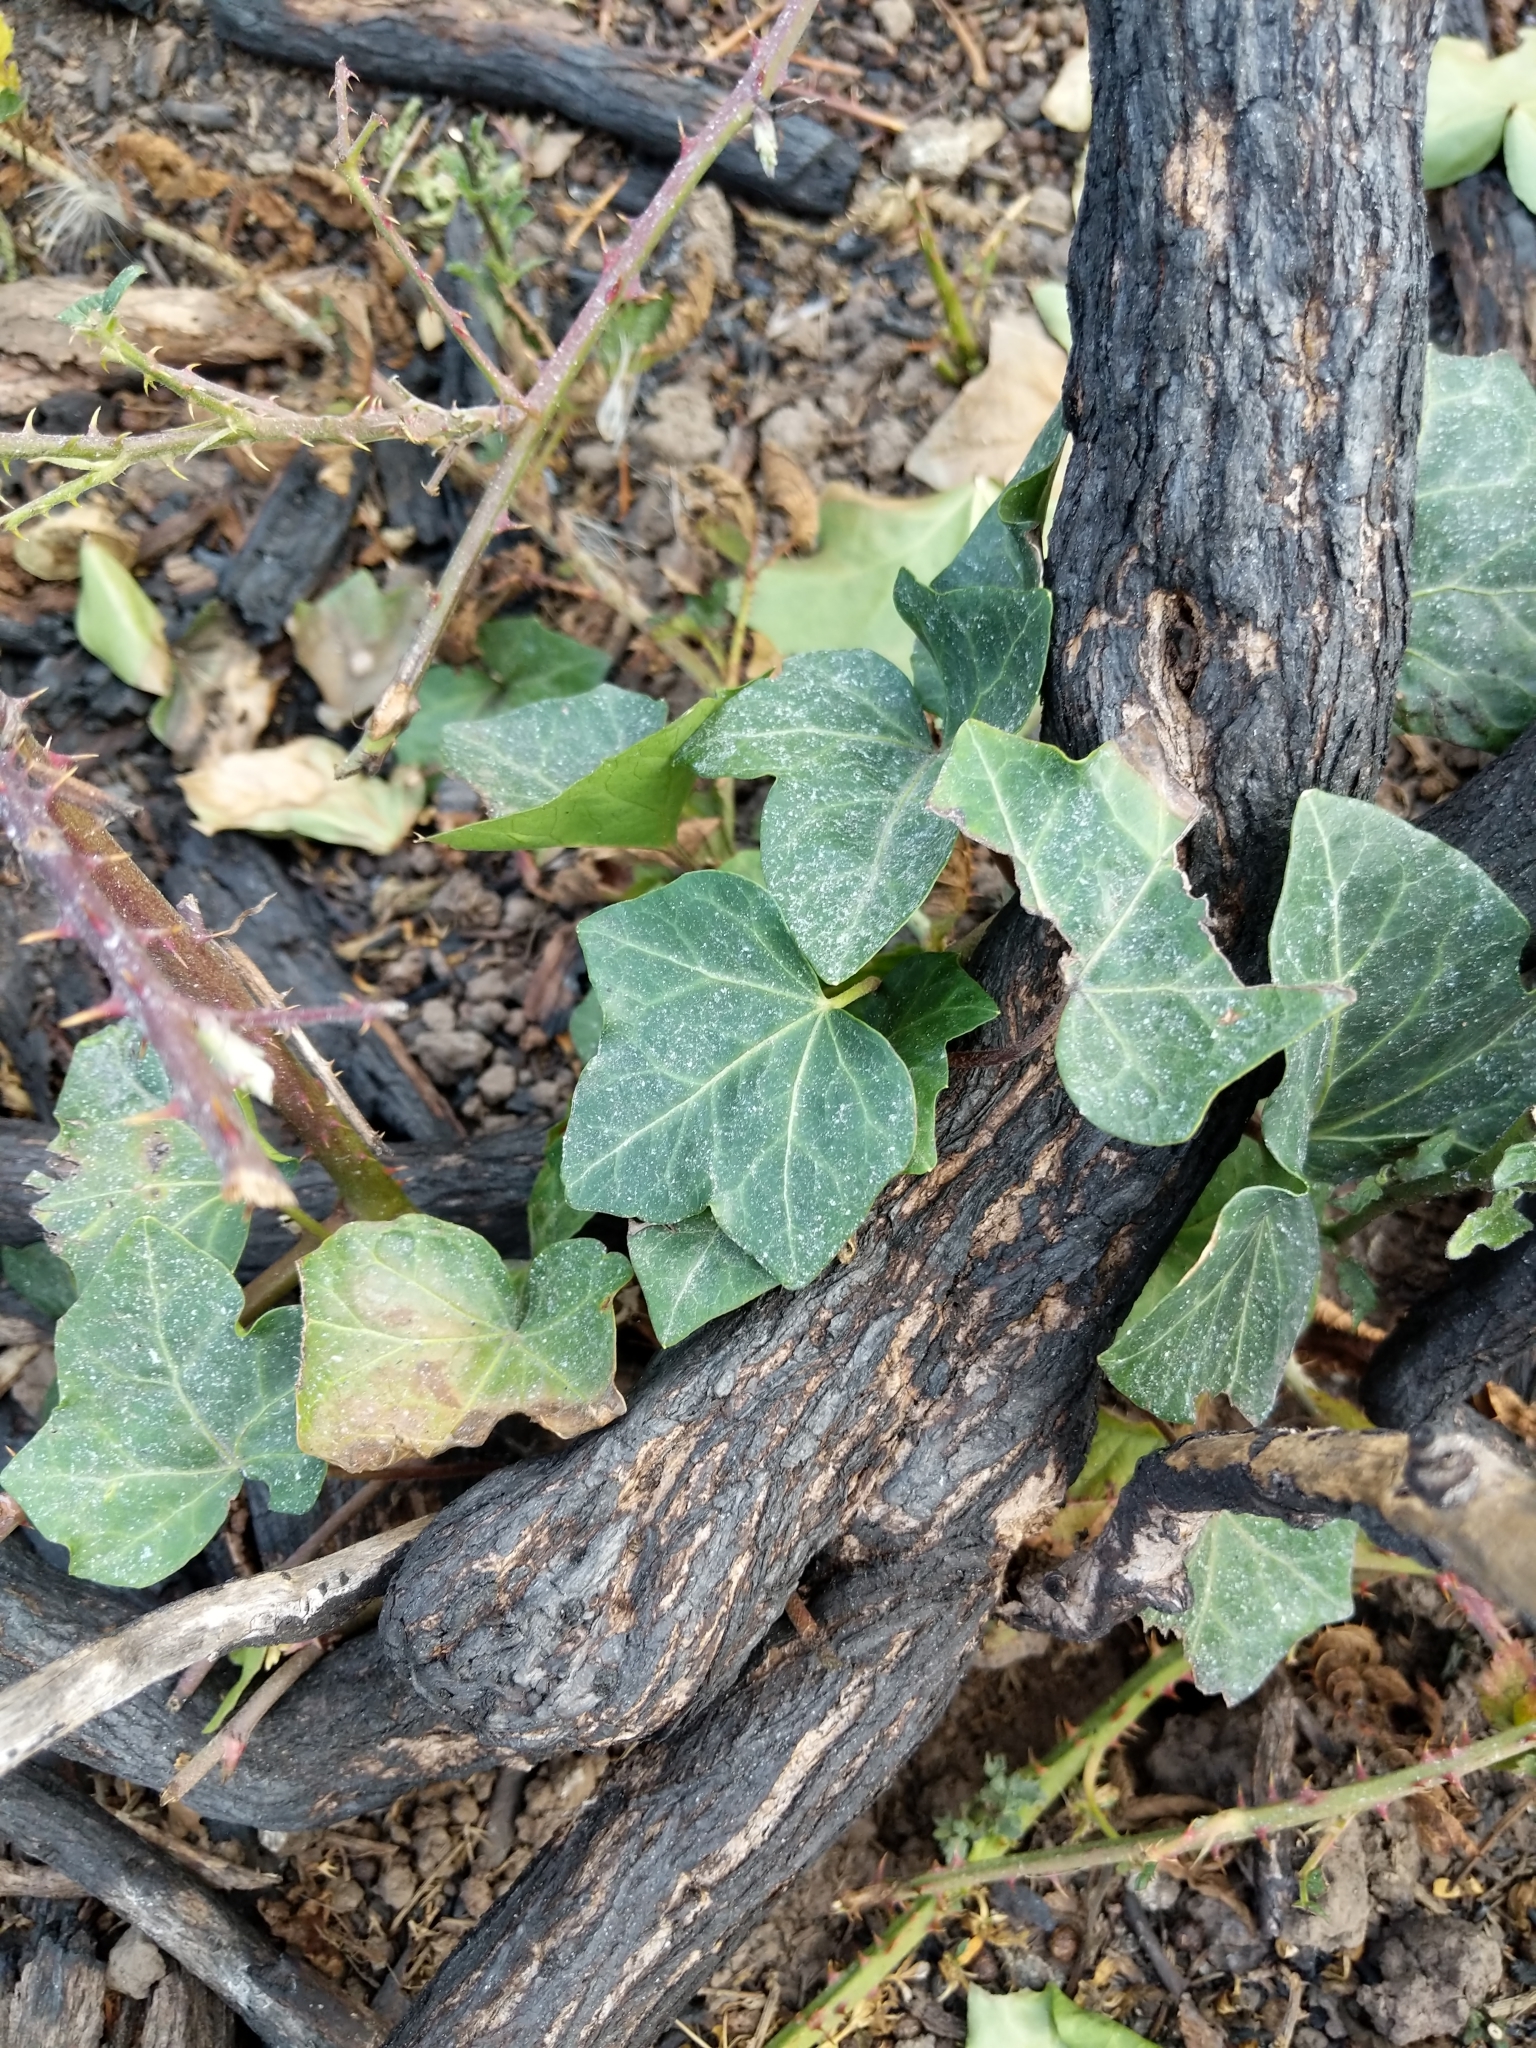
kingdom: Plantae
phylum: Tracheophyta
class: Magnoliopsida
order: Apiales
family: Araliaceae
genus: Hedera
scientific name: Hedera helix
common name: Ivy
